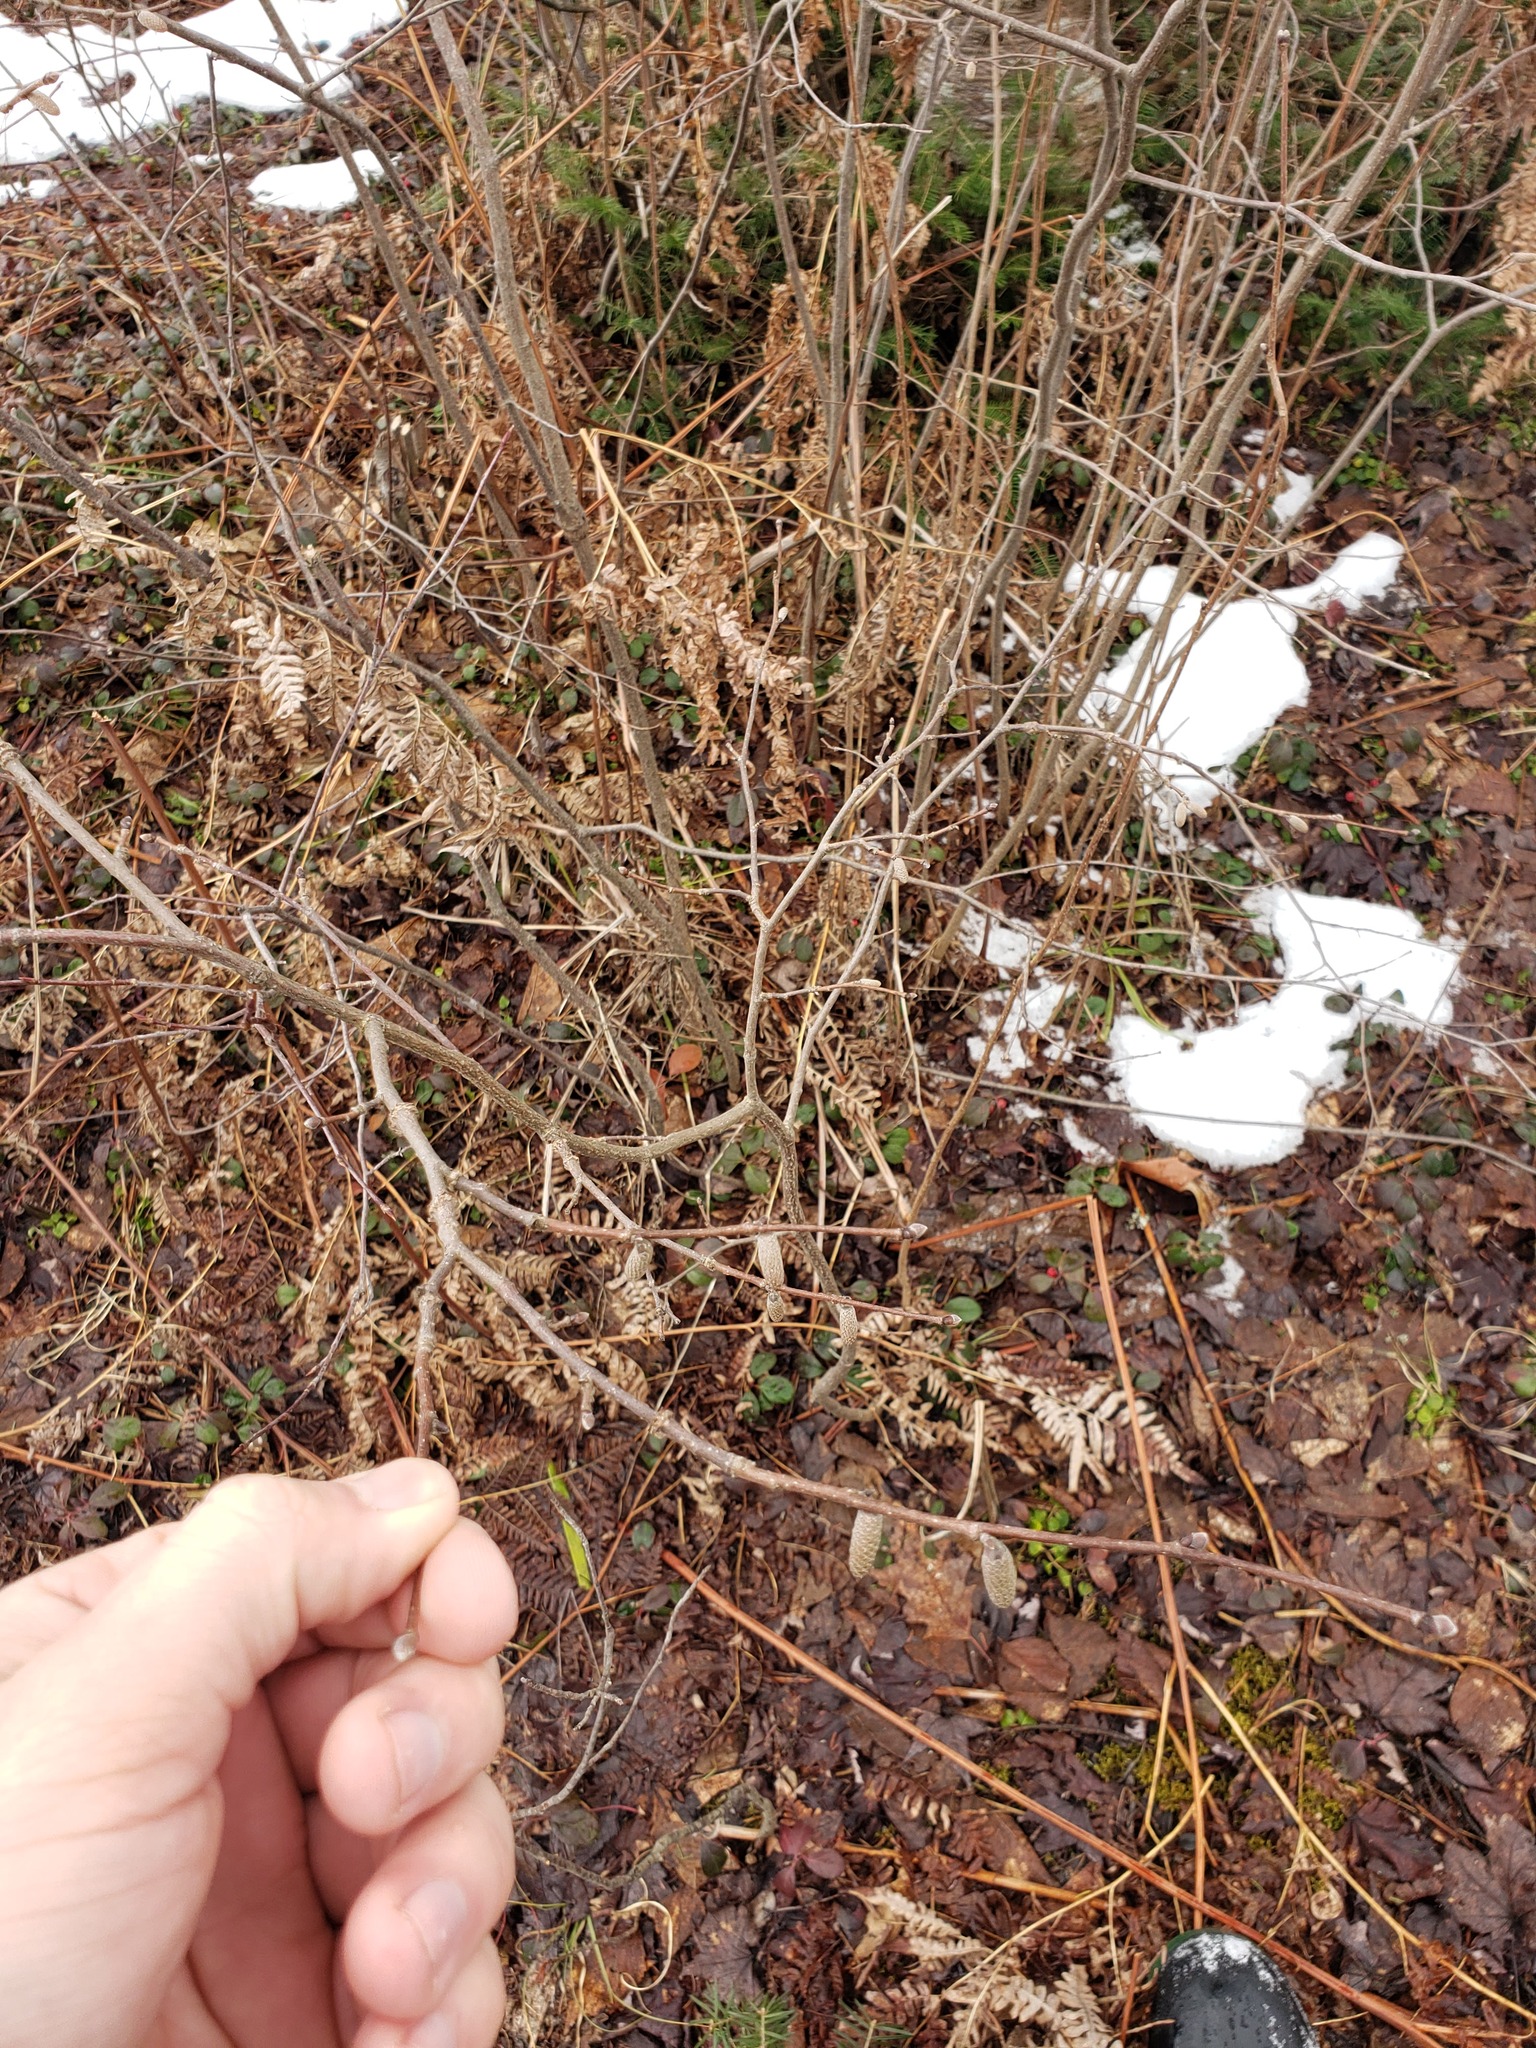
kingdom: Plantae
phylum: Tracheophyta
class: Magnoliopsida
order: Fagales
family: Betulaceae
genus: Corylus
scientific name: Corylus cornuta
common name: Beaked hazel
